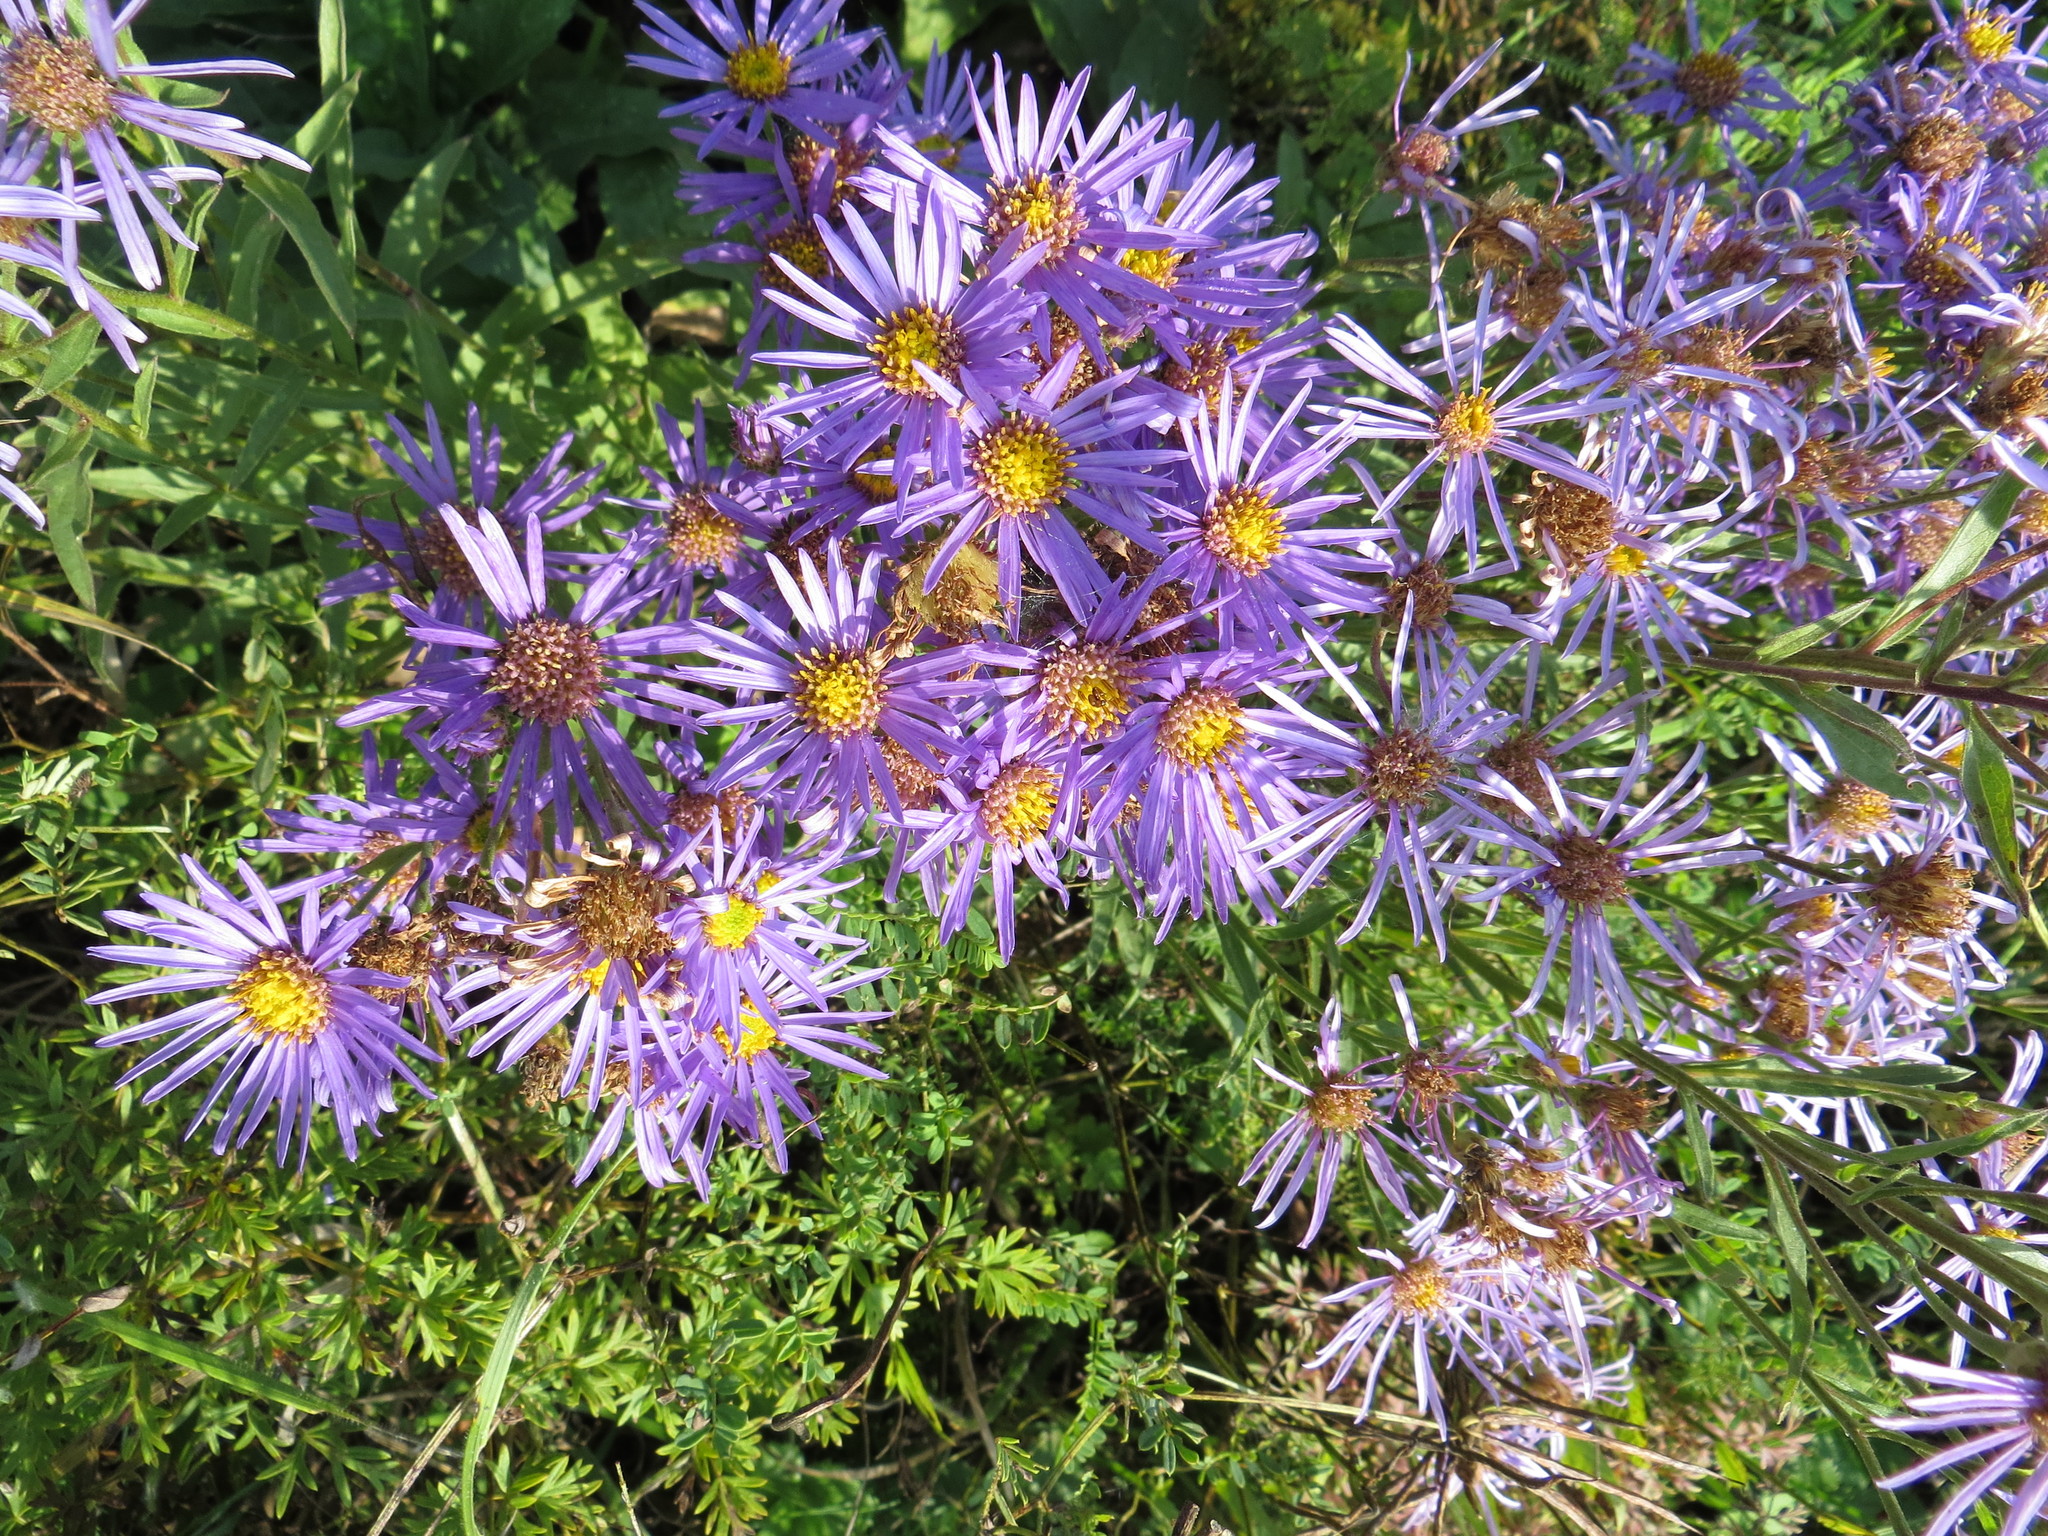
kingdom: Plantae
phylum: Tracheophyta
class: Magnoliopsida
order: Asterales
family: Asteraceae
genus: Aster
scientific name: Aster amellus
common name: European michaelmas daisy
